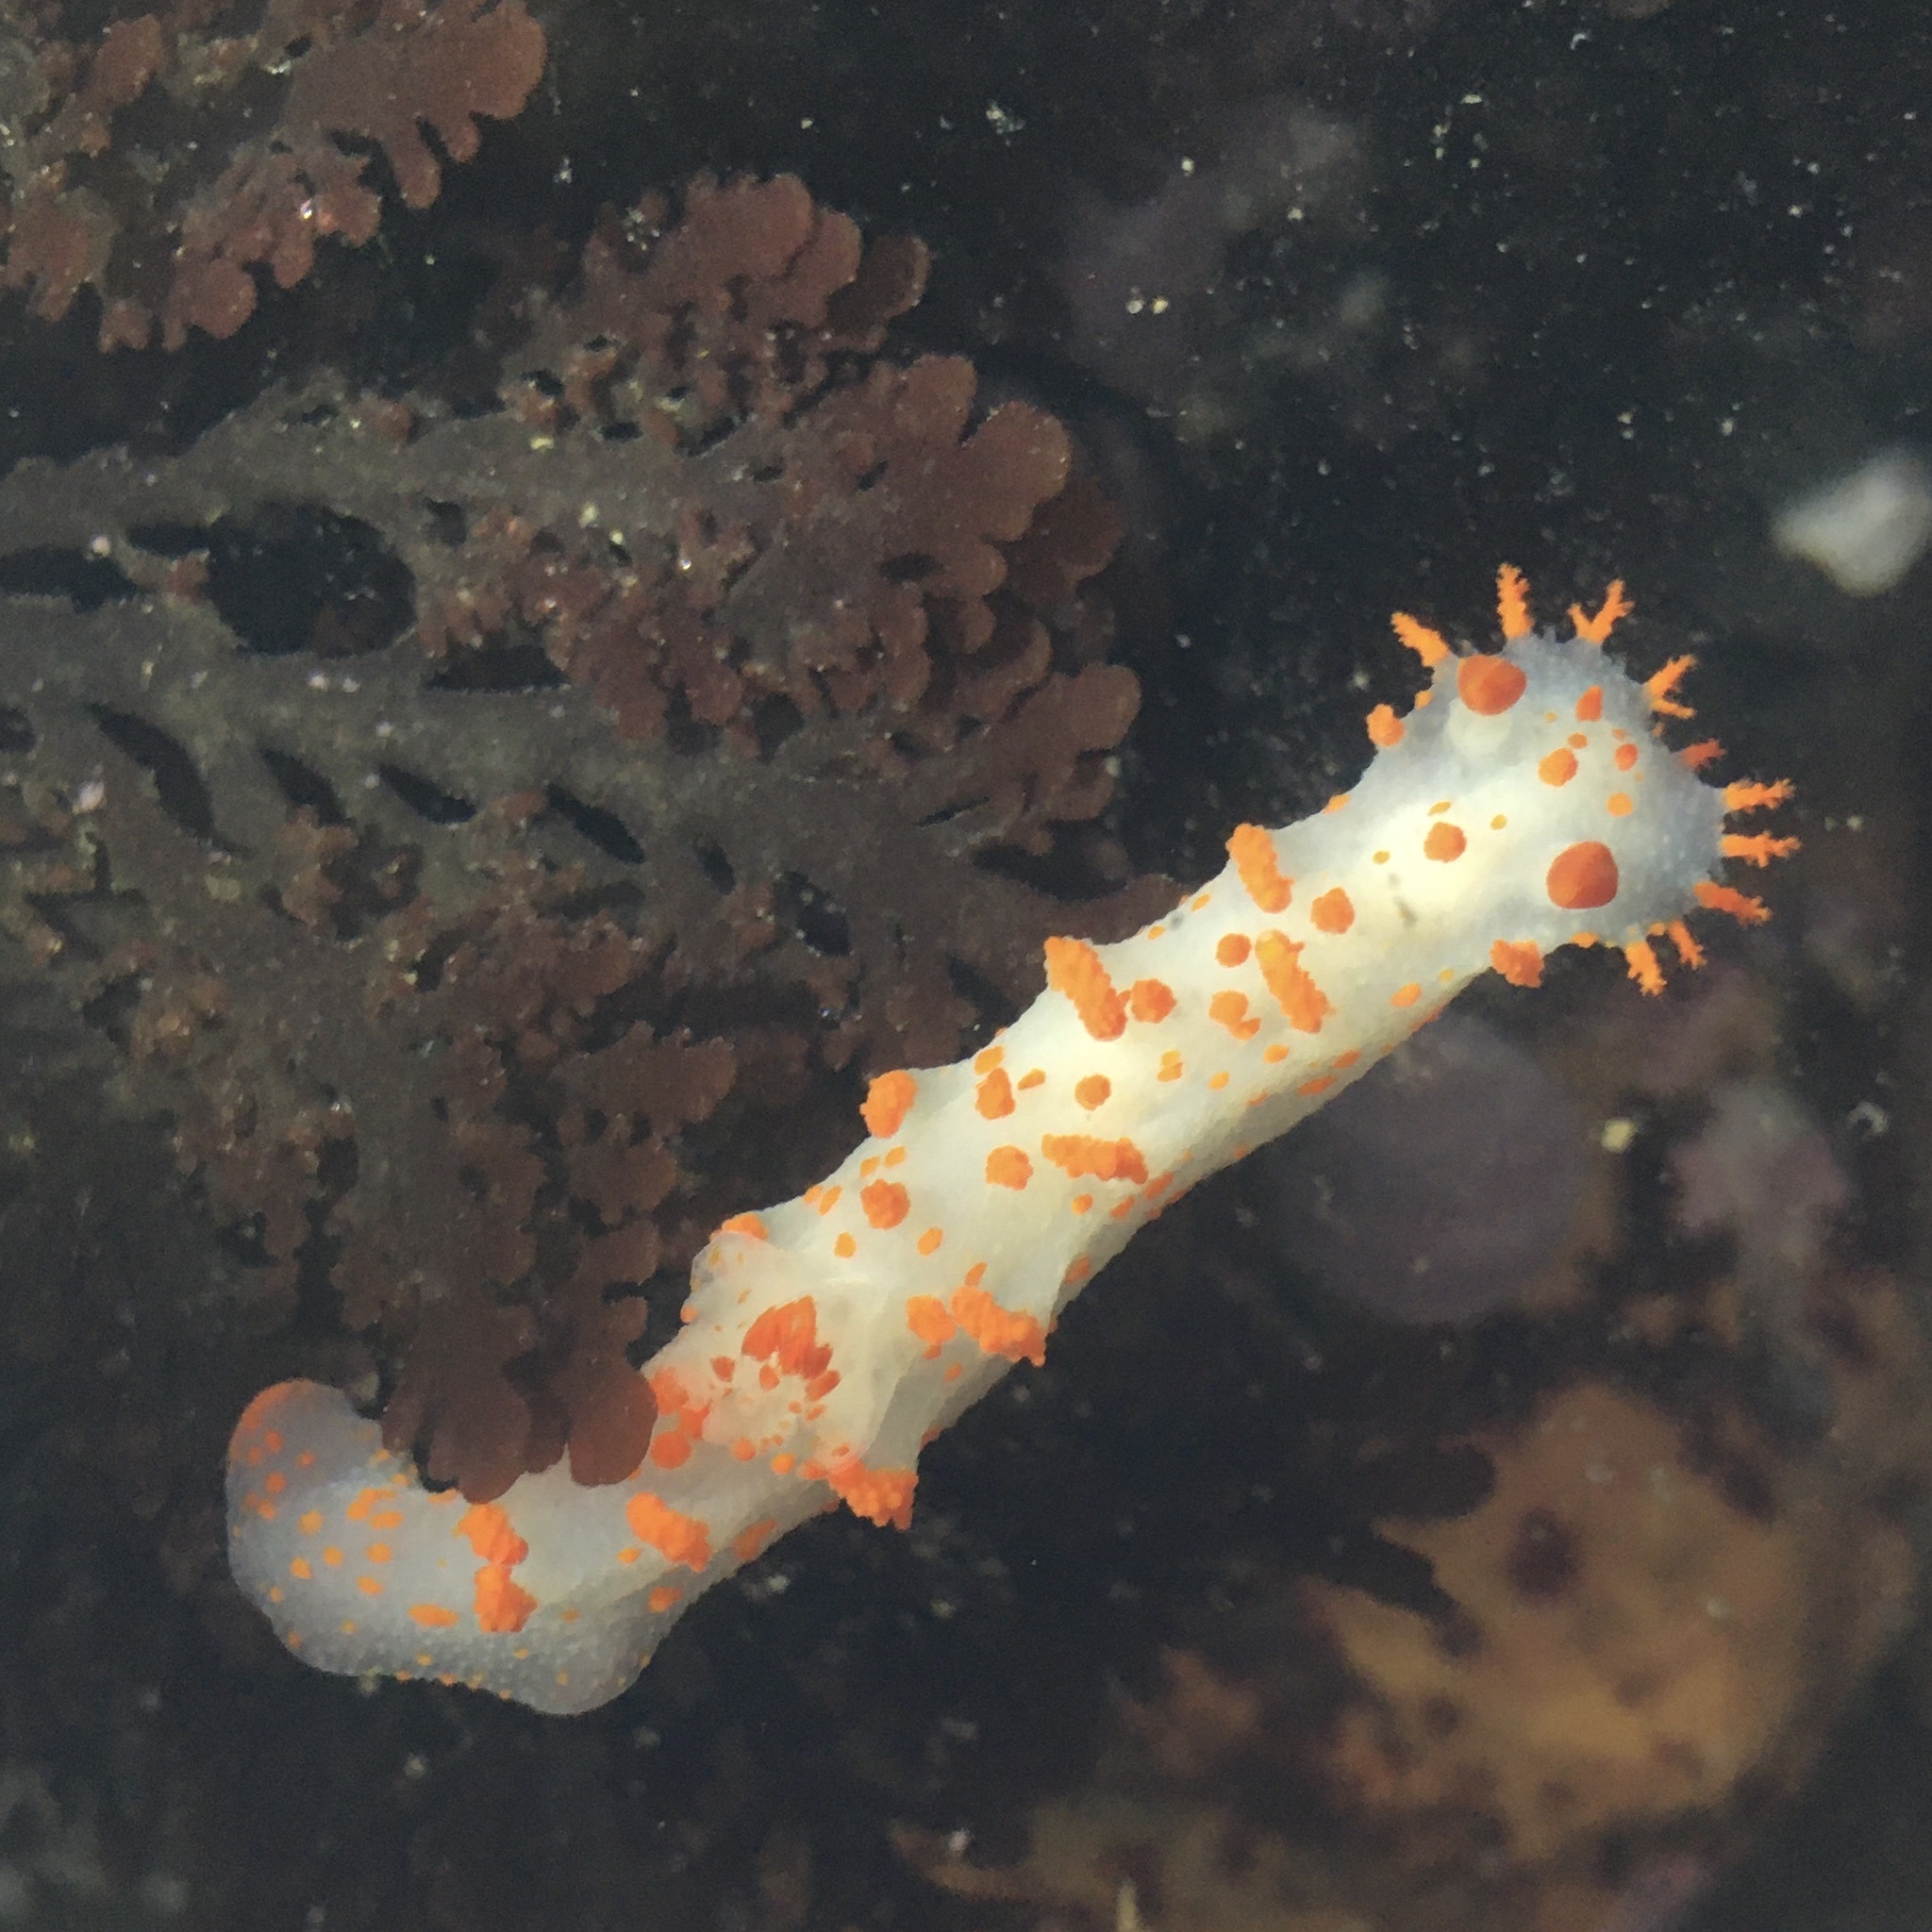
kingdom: Animalia
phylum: Mollusca
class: Gastropoda
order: Nudibranchia
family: Polyceridae
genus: Triopha
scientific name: Triopha catalinae
